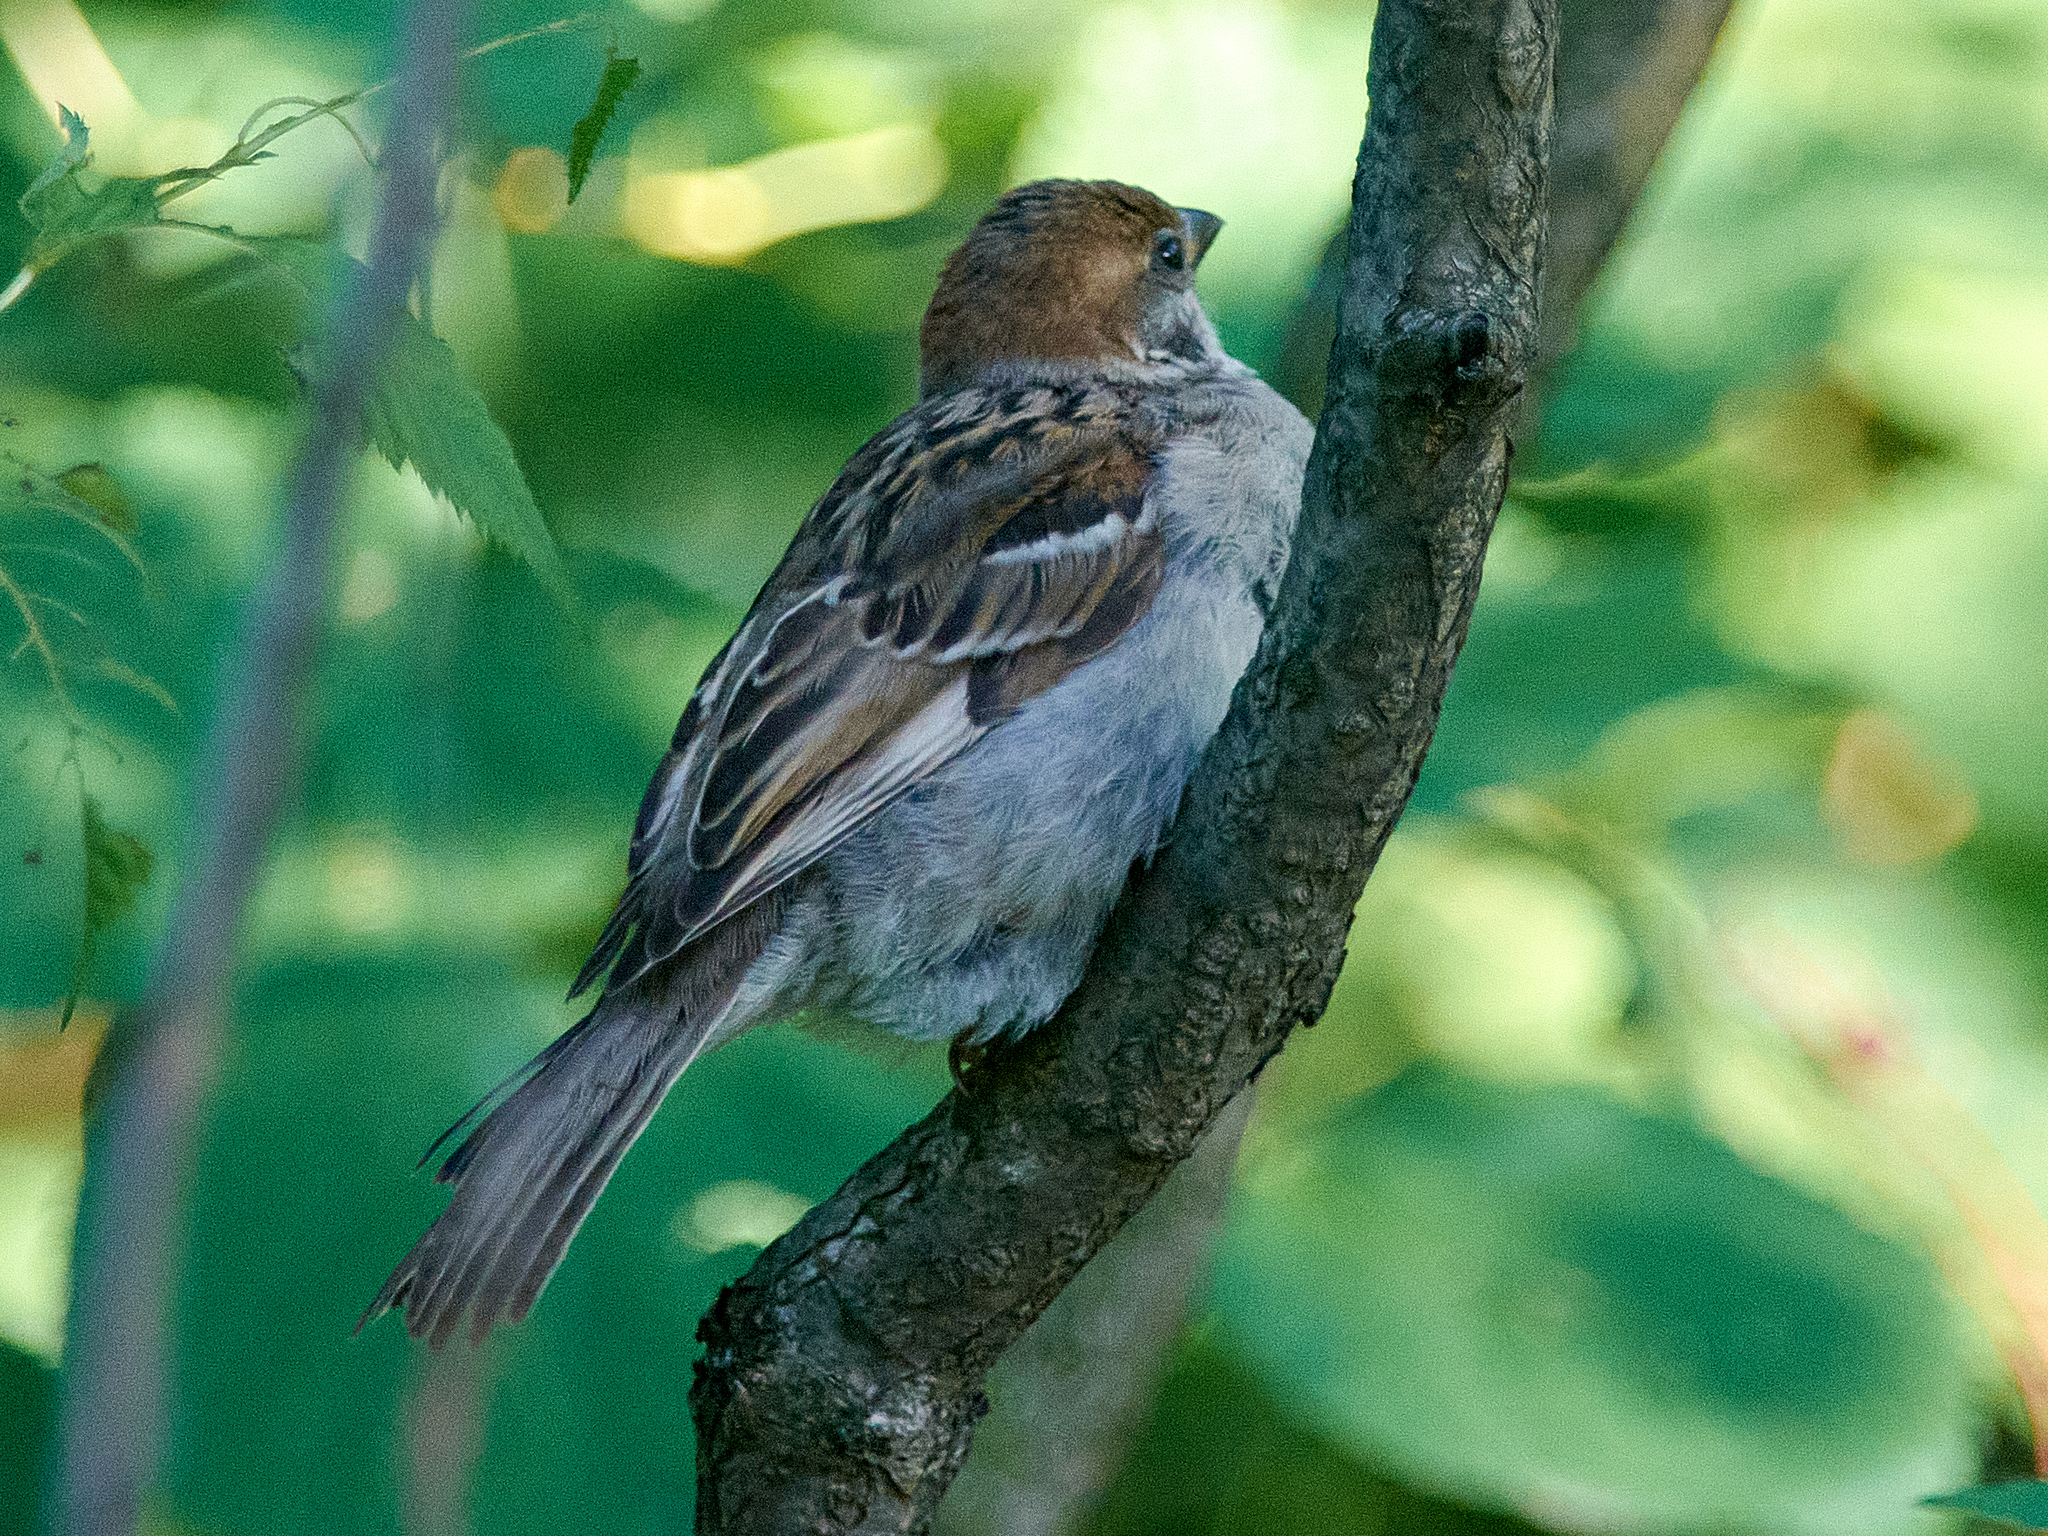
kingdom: Animalia
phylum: Chordata
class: Aves
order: Passeriformes
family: Passeridae
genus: Passer
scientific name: Passer montanus
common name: Eurasian tree sparrow
